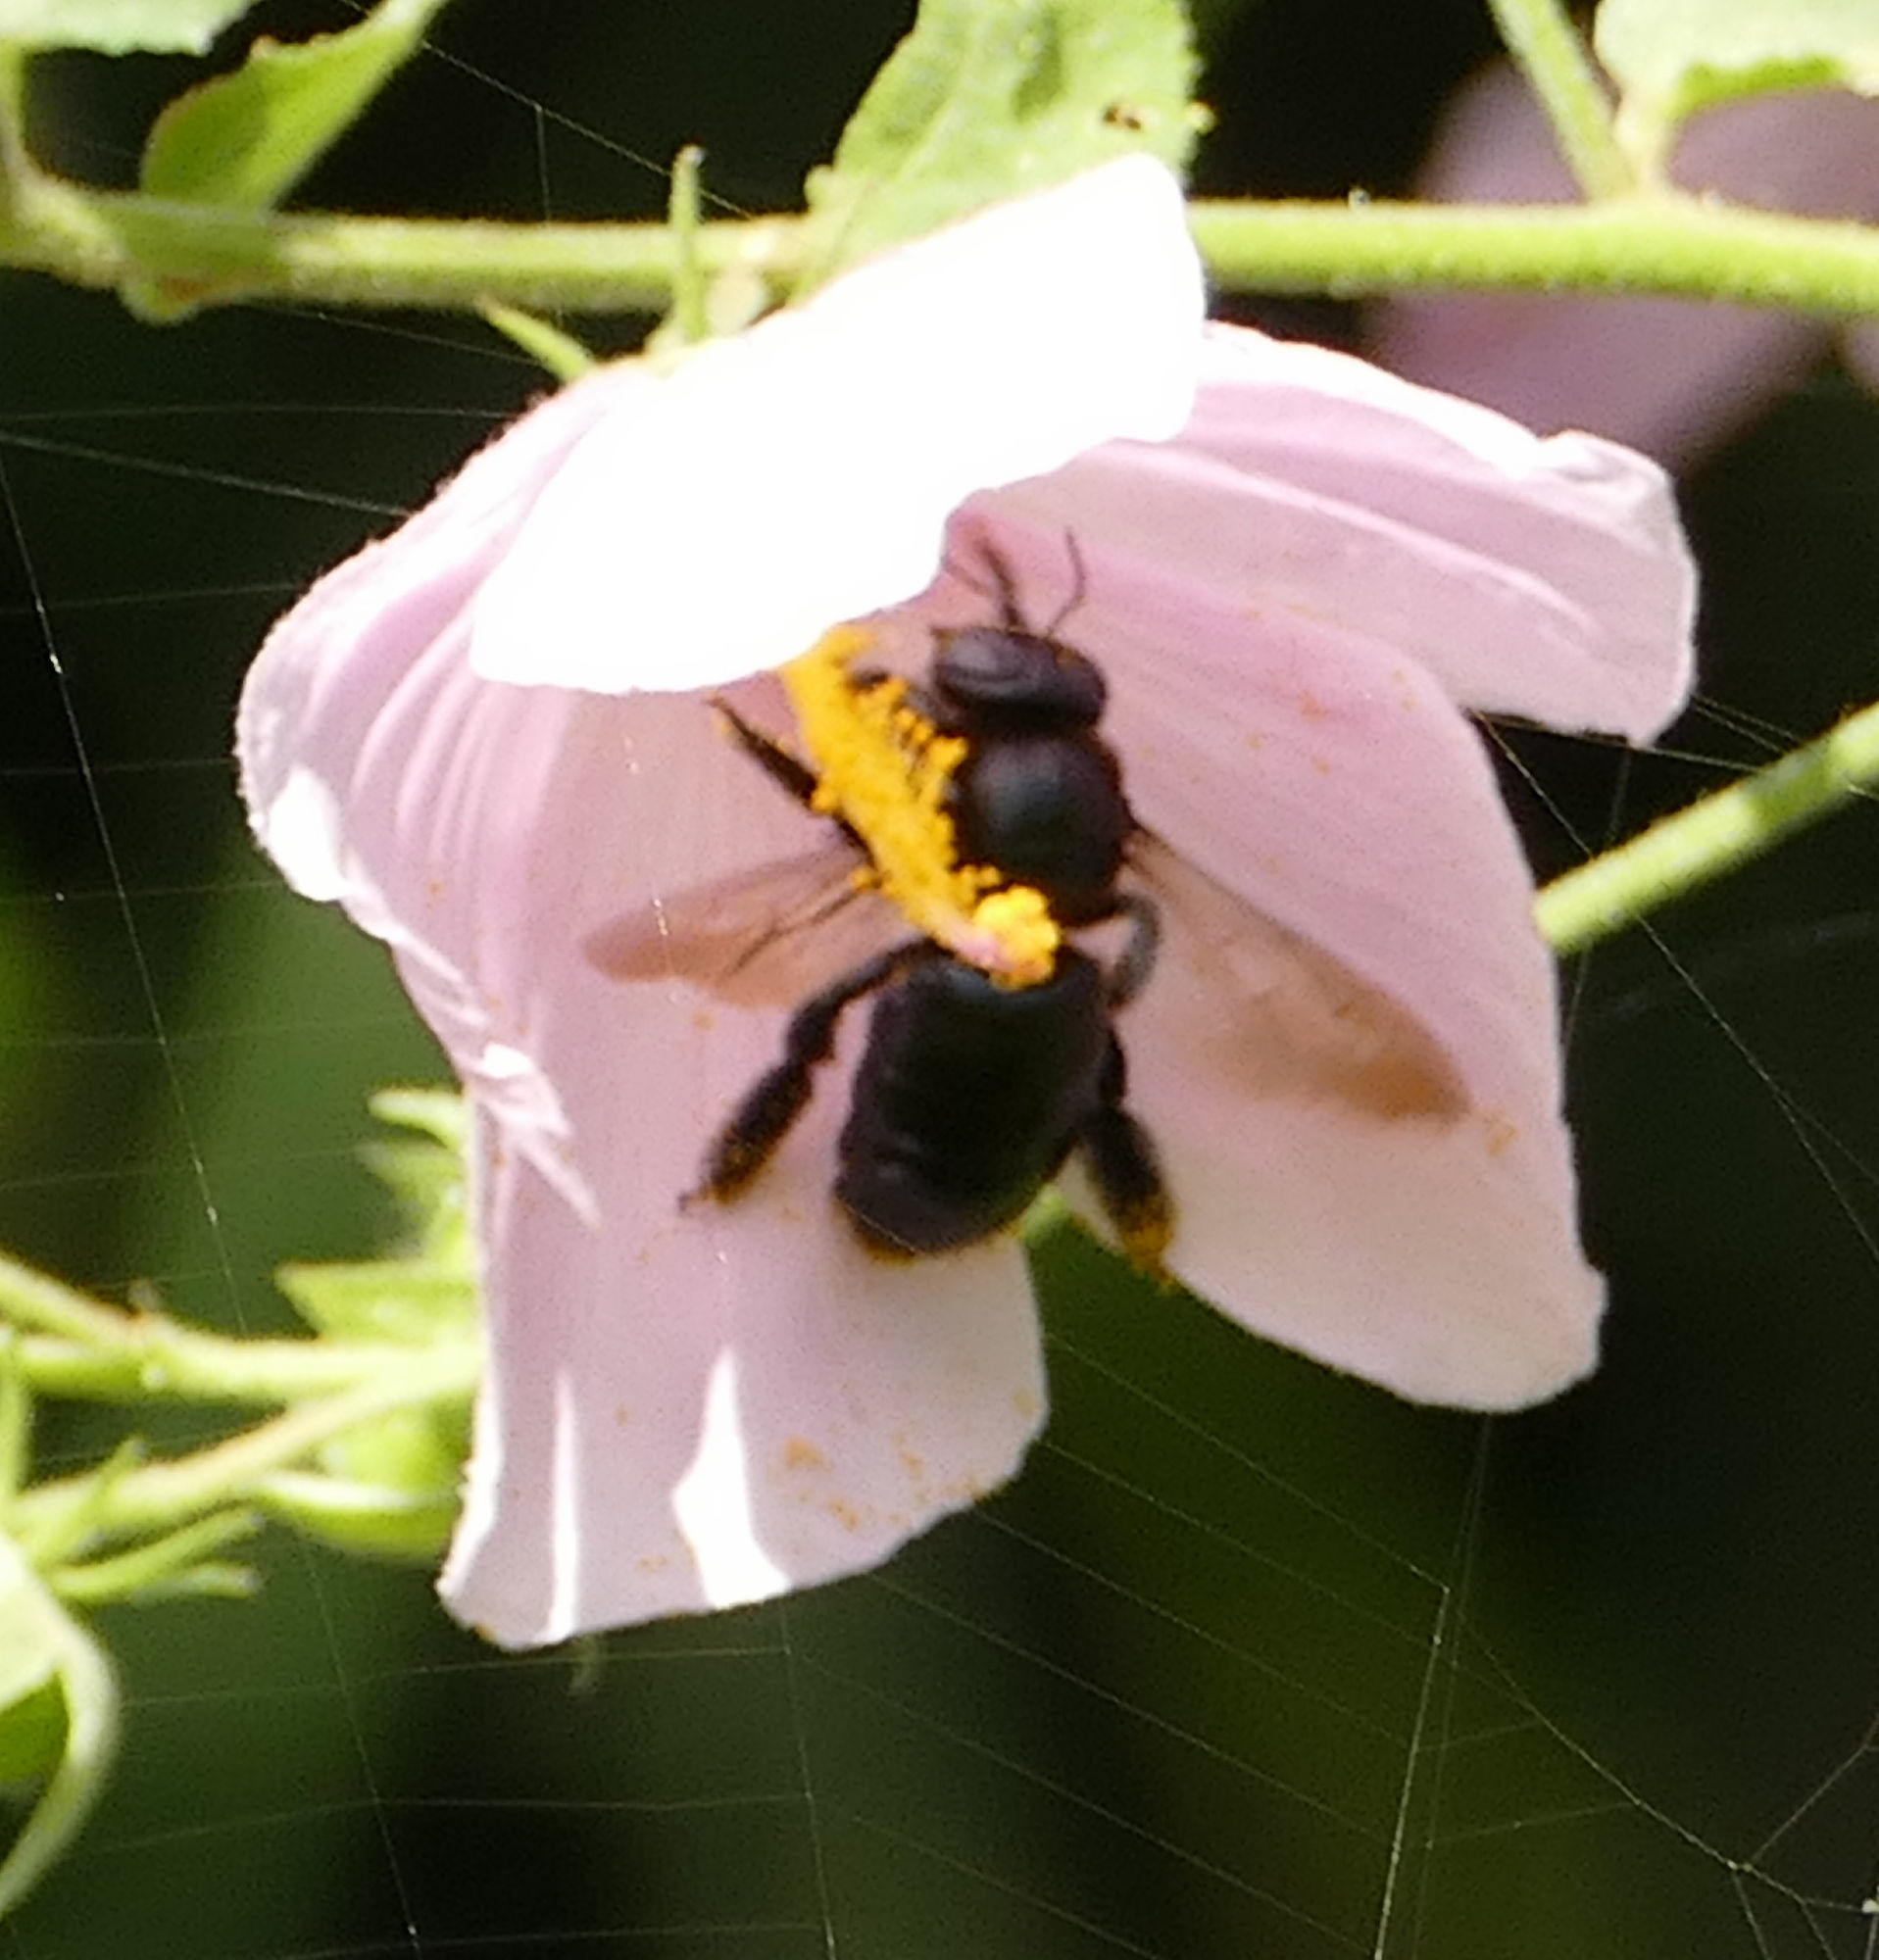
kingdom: Animalia
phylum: Arthropoda
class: Insecta
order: Hymenoptera
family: Apidae
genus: Xylocopa
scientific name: Xylocopa micans
